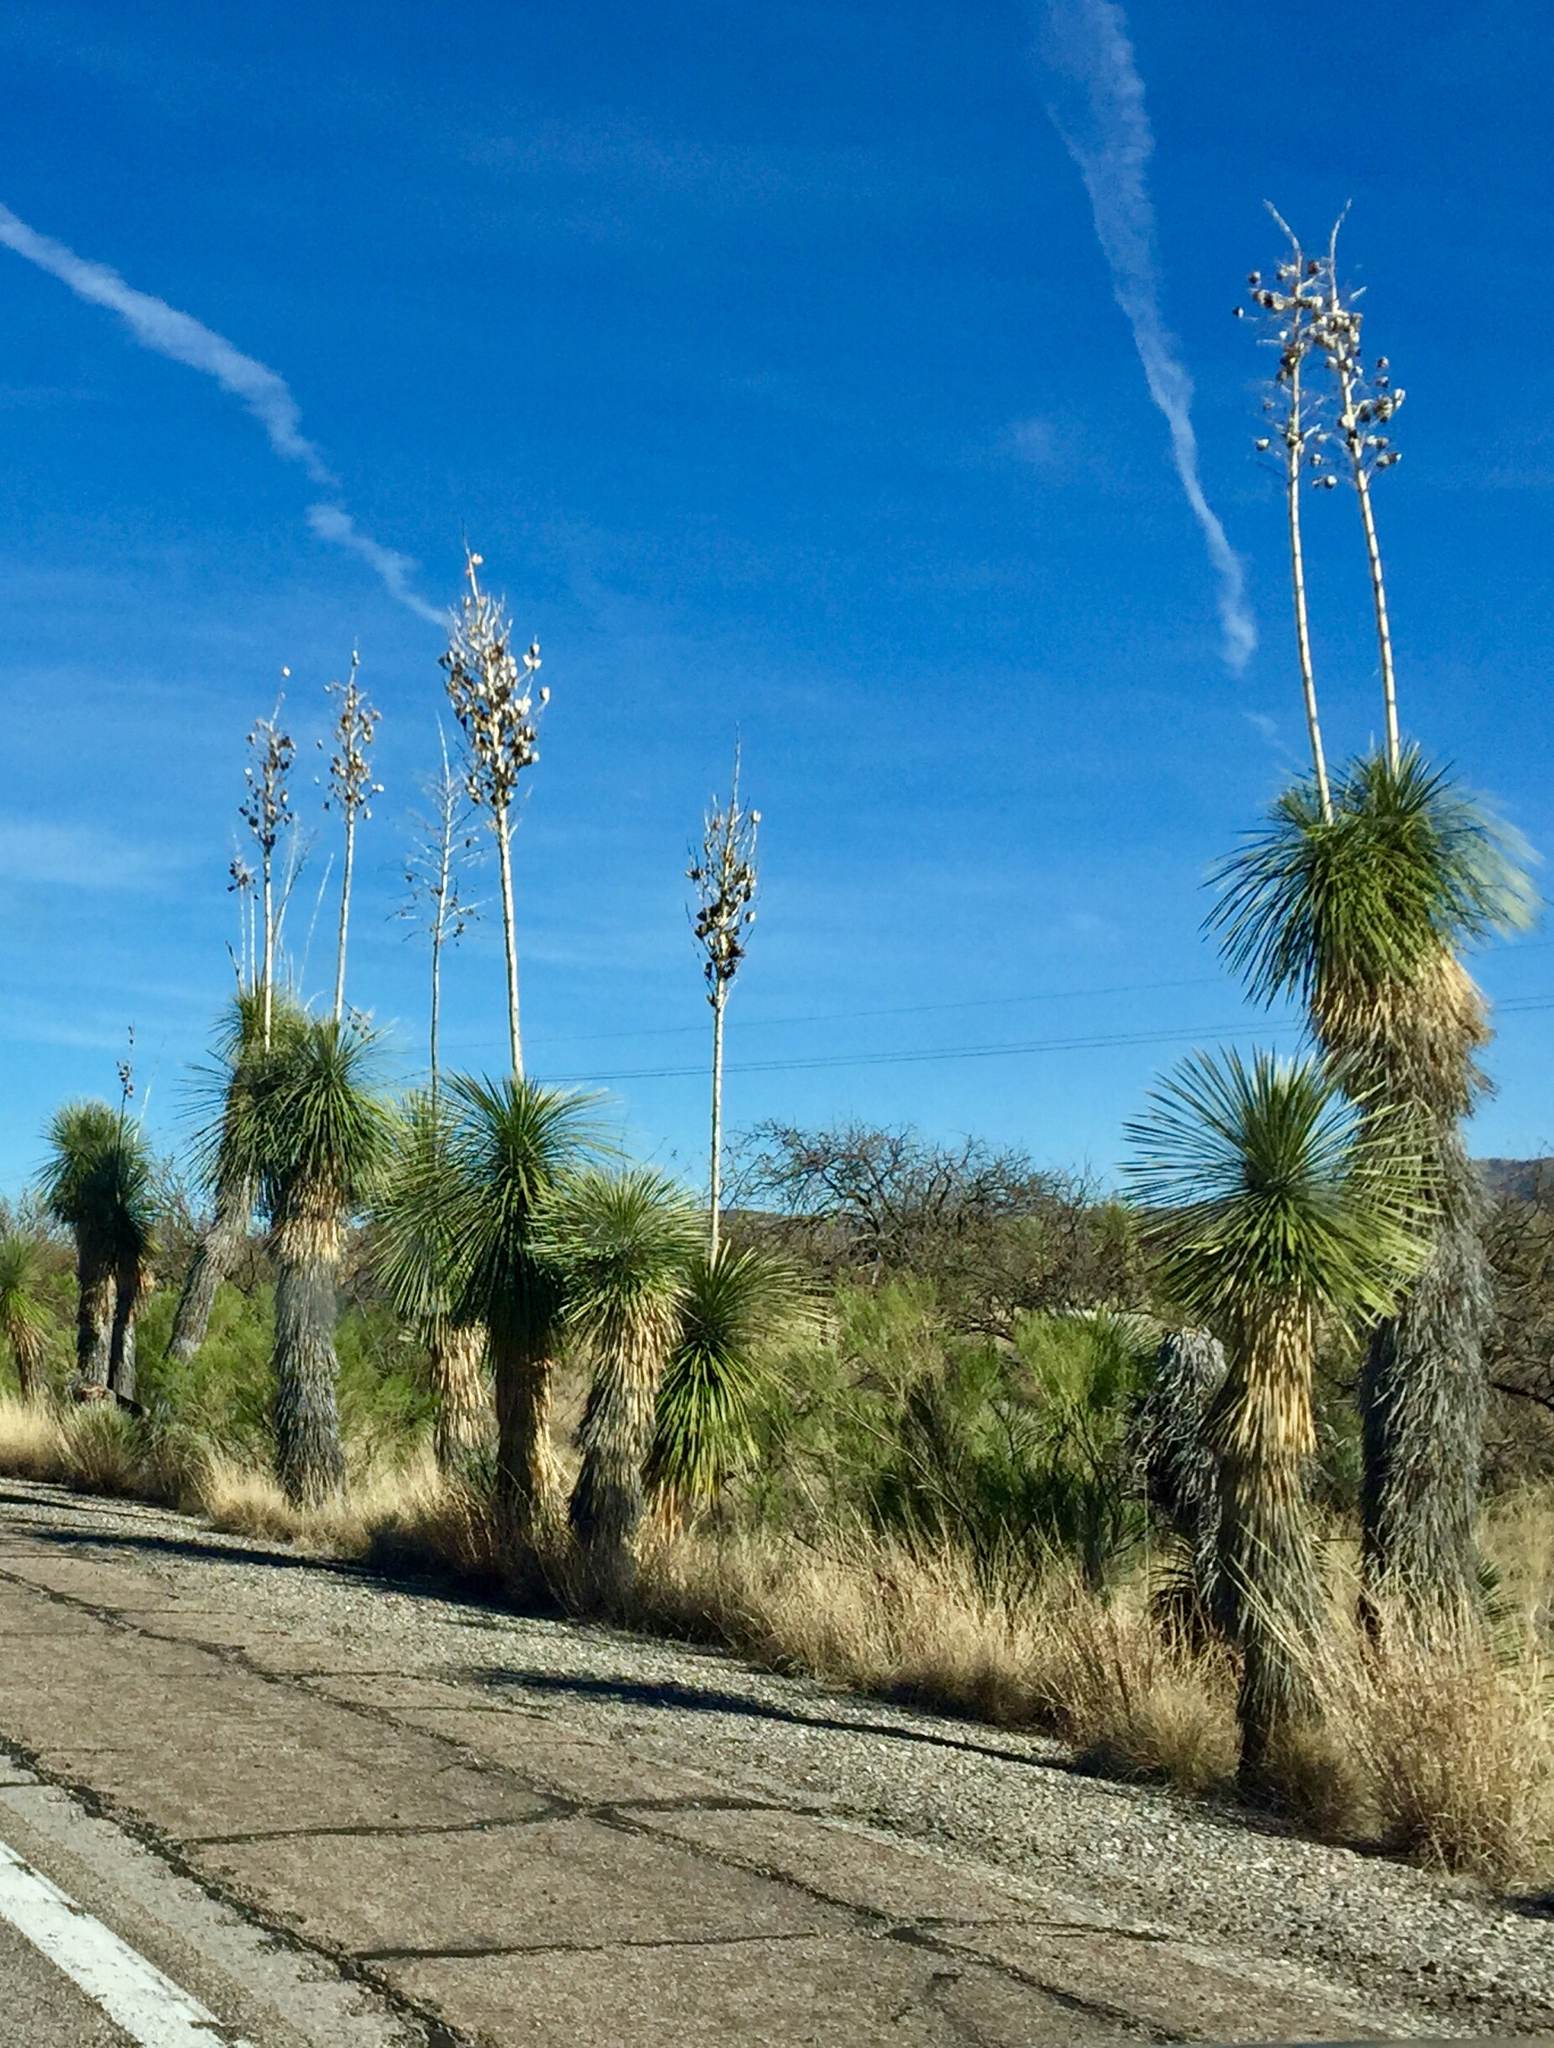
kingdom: Plantae
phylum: Tracheophyta
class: Liliopsida
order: Asparagales
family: Asparagaceae
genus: Yucca
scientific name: Yucca elata
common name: Palmella
